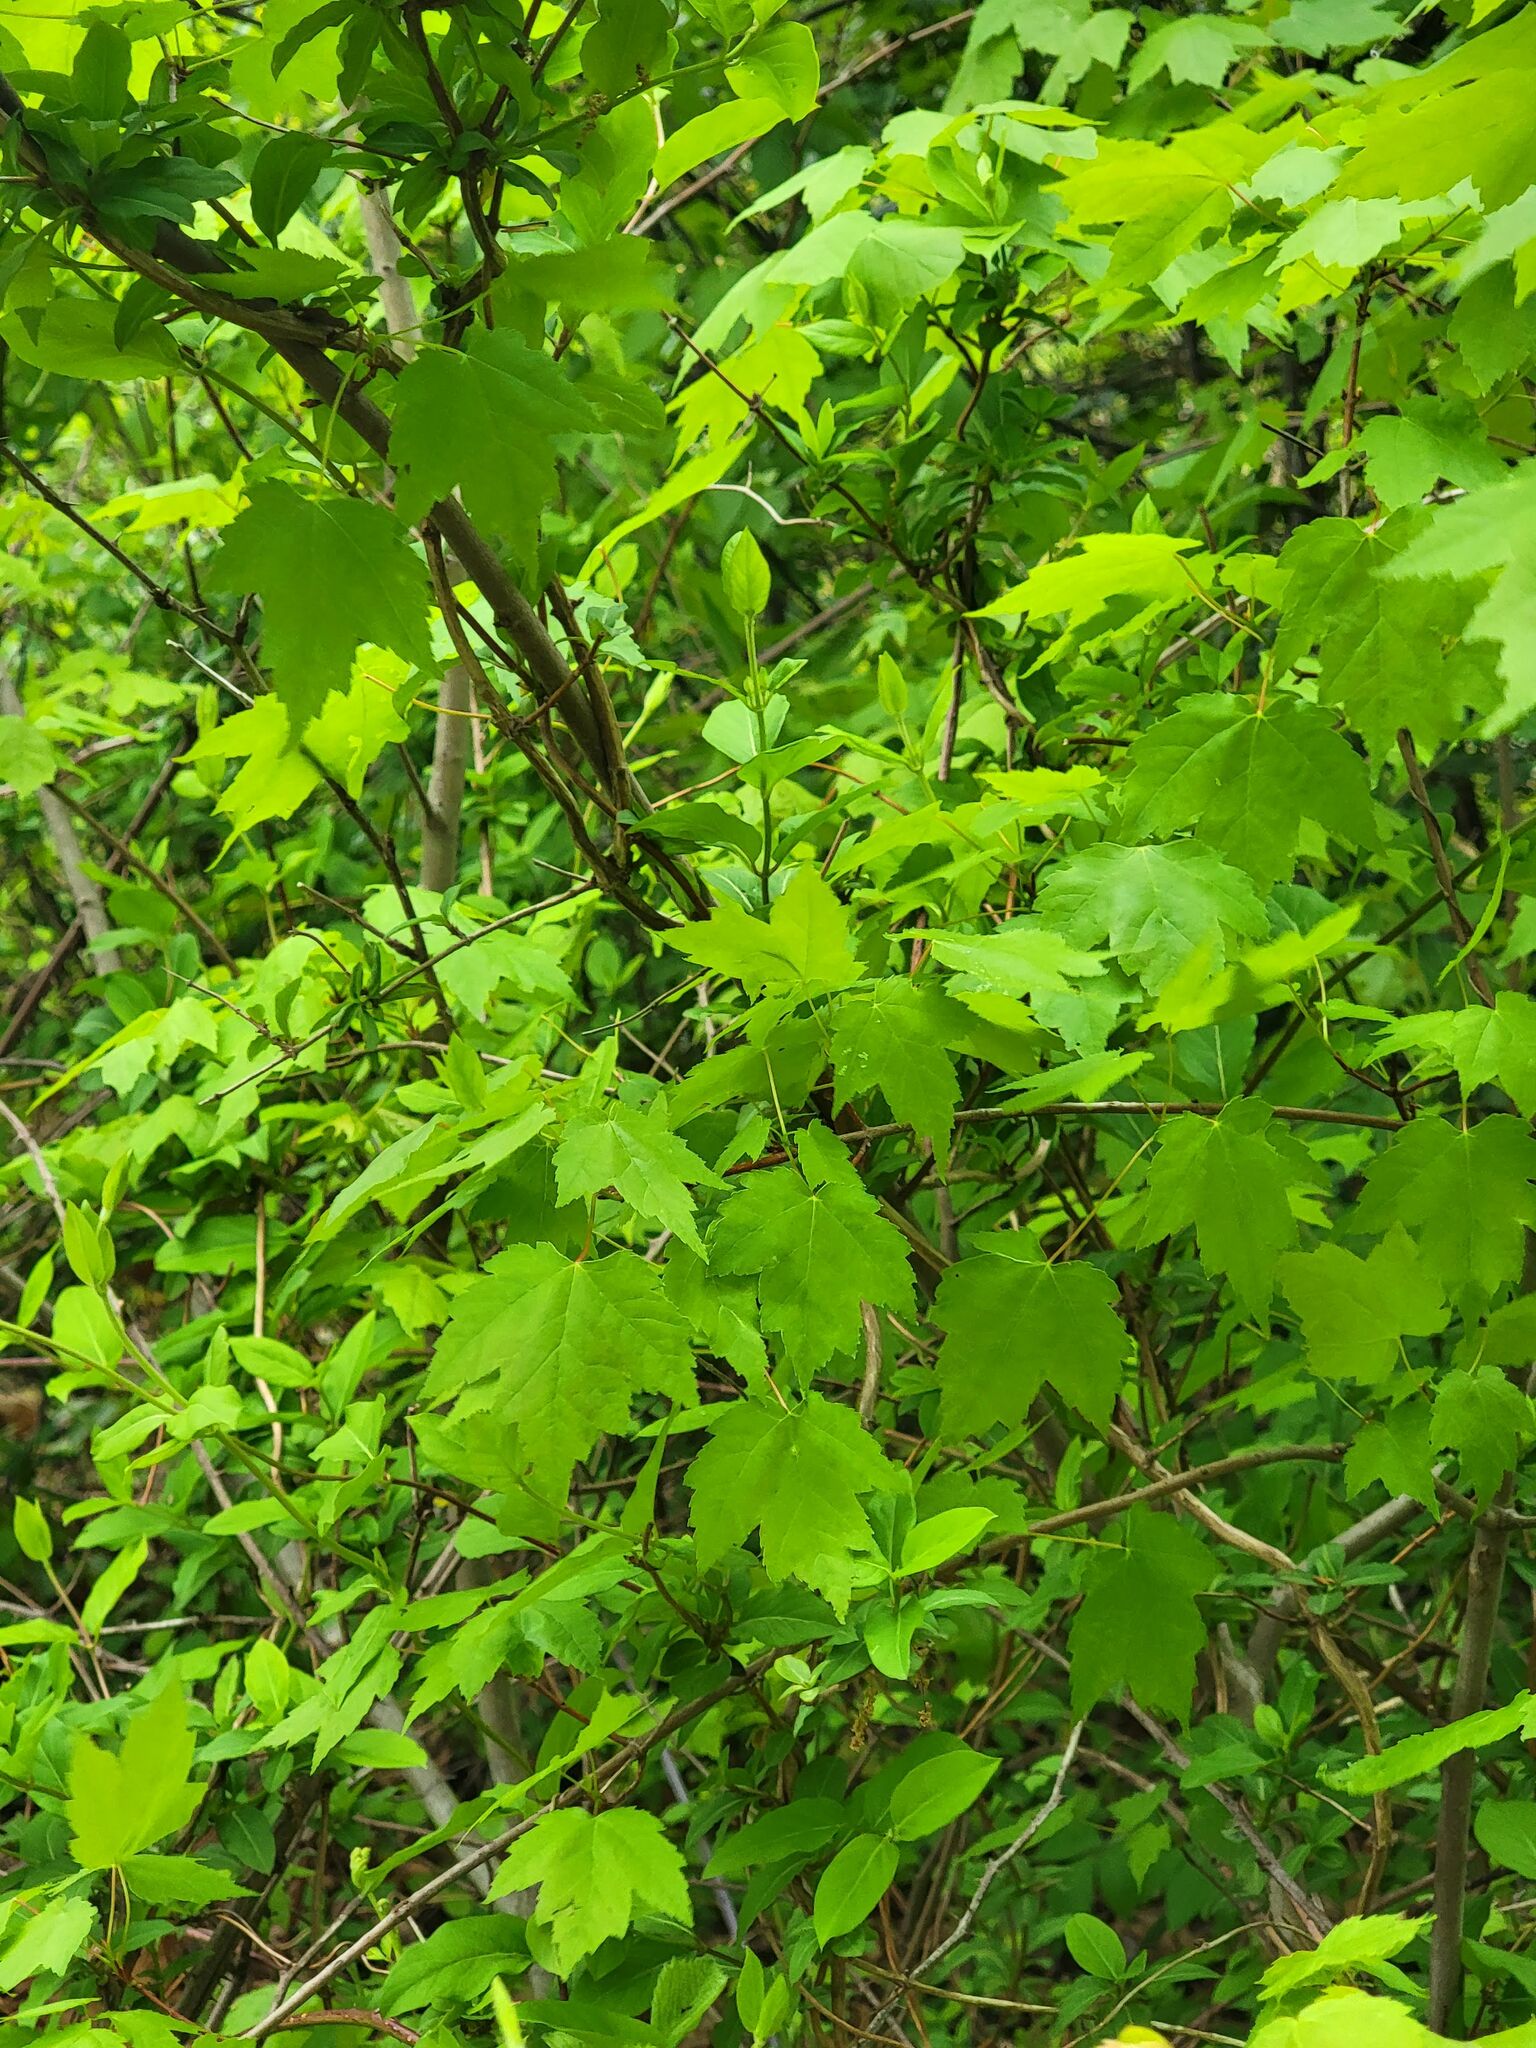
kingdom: Plantae
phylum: Tracheophyta
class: Magnoliopsida
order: Sapindales
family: Sapindaceae
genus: Acer
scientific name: Acer rubrum
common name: Red maple
